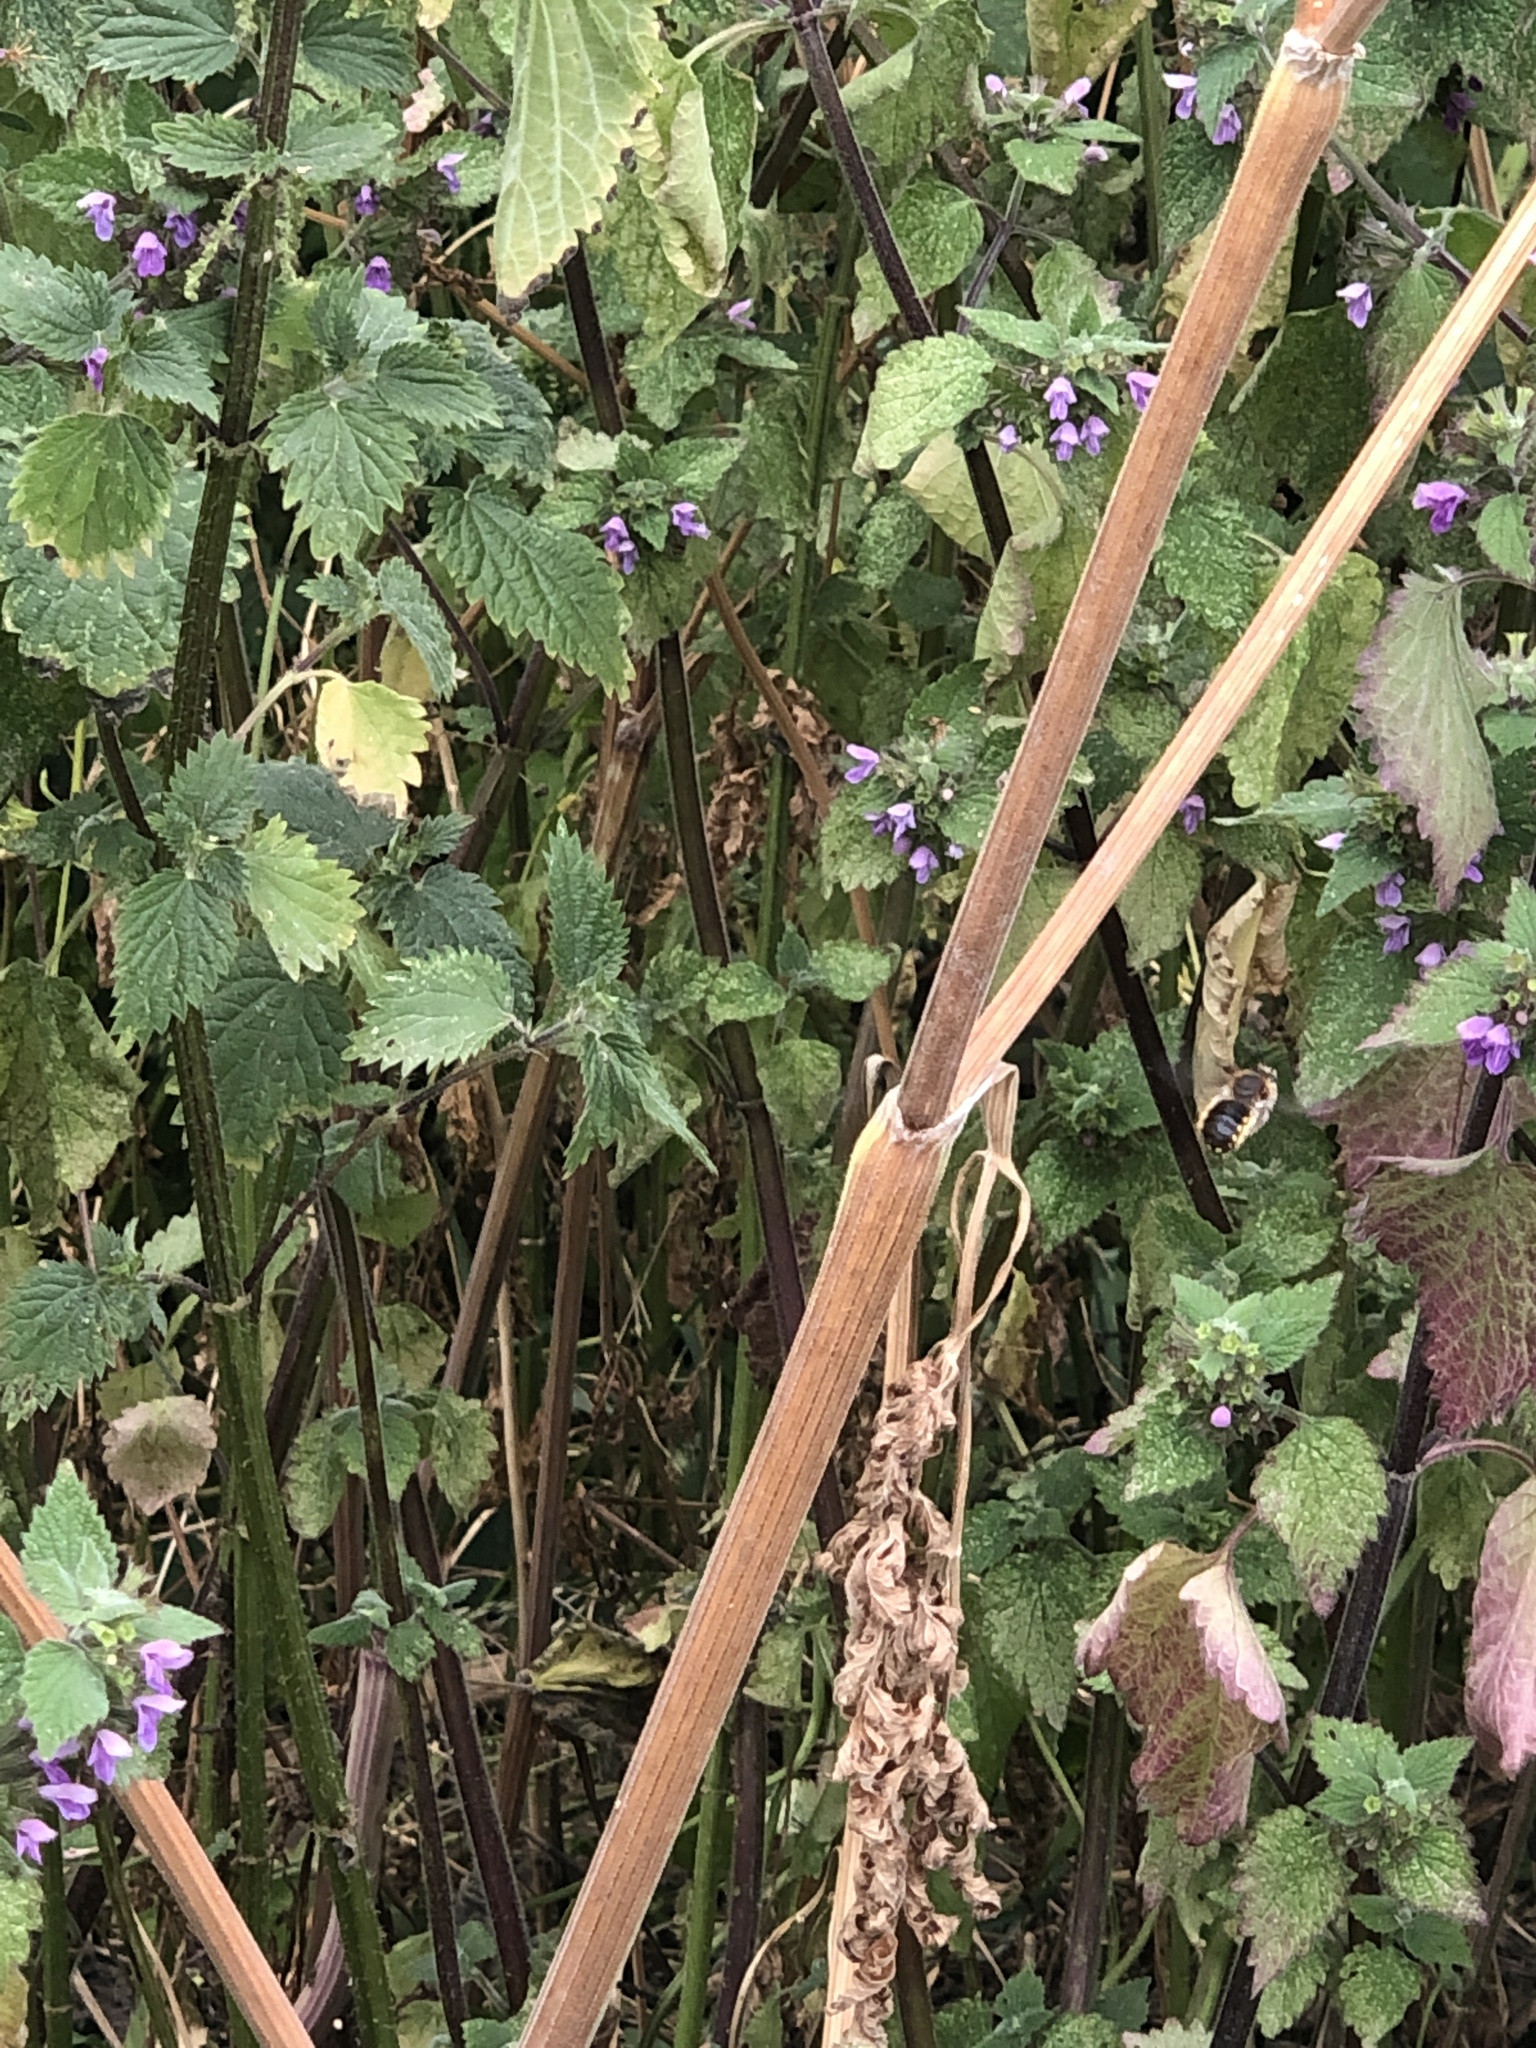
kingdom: Animalia
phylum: Arthropoda
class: Insecta
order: Hymenoptera
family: Megachilidae
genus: Anthidium
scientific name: Anthidium manicatum
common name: Wool carder bee
